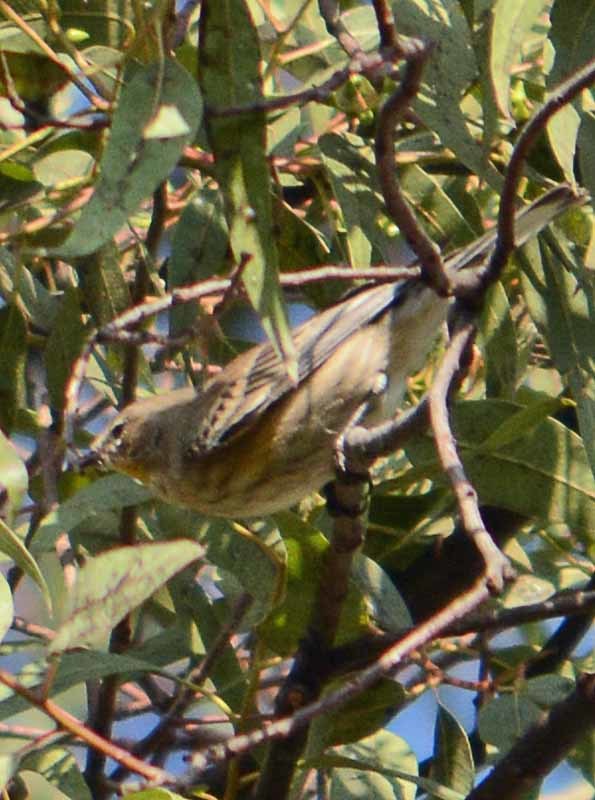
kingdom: Animalia
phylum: Chordata
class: Aves
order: Passeriformes
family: Parulidae
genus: Setophaga
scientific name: Setophaga auduboni
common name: Audubon's warbler
